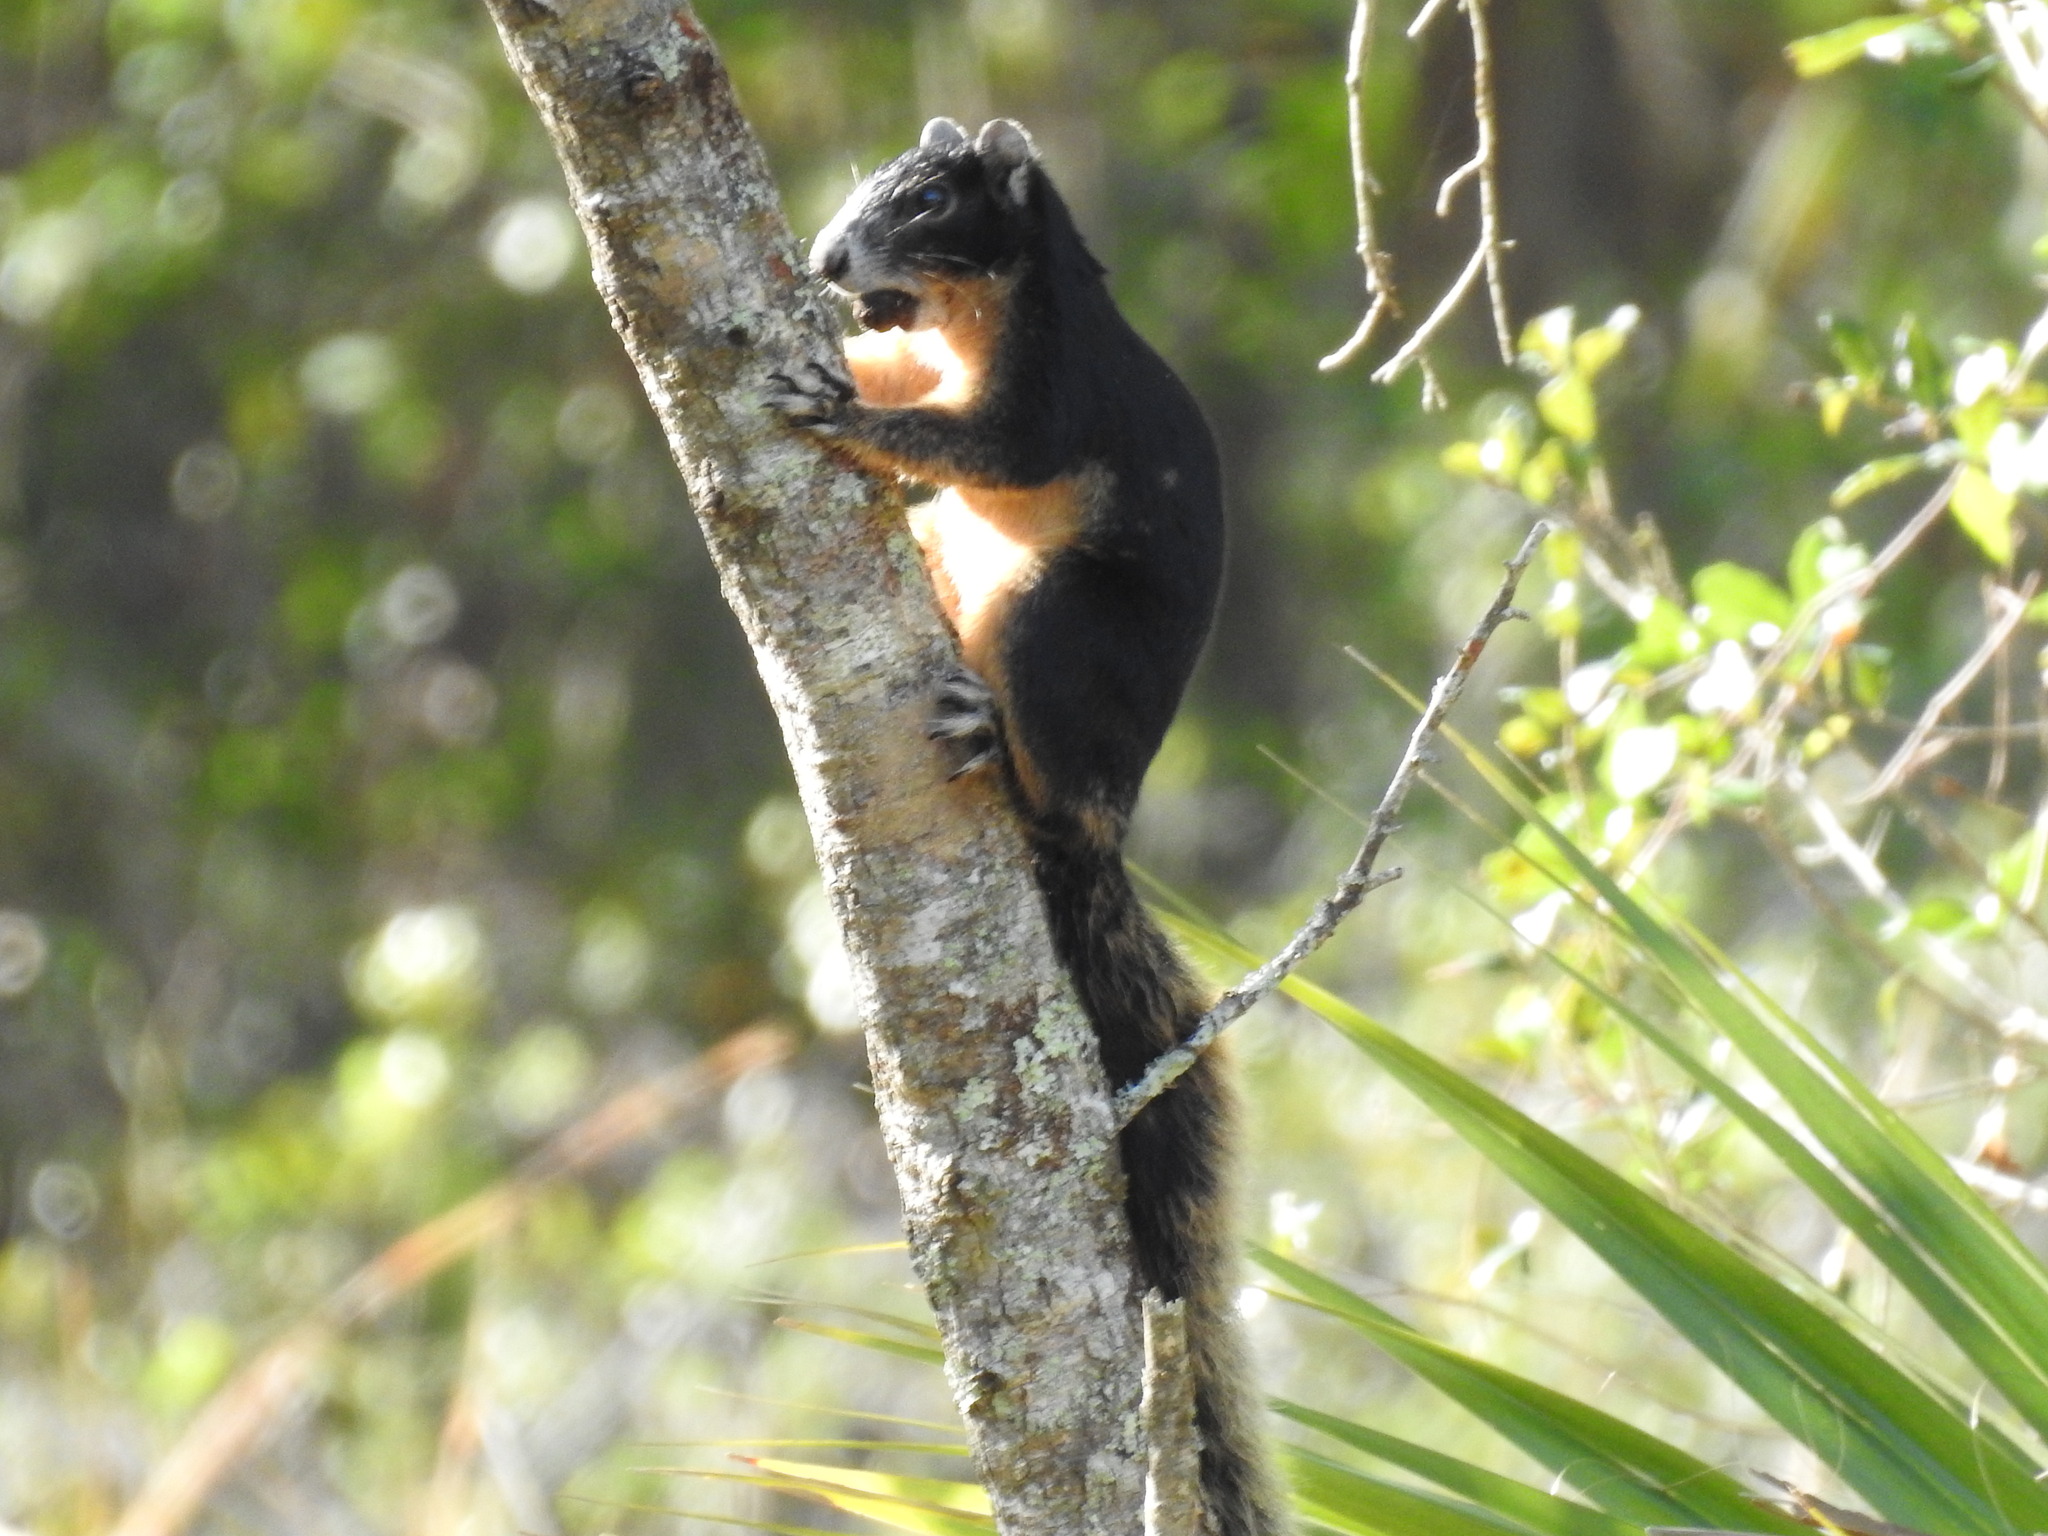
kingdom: Animalia
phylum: Chordata
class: Mammalia
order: Rodentia
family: Sciuridae
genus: Sciurus
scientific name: Sciurus niger
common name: Fox squirrel
